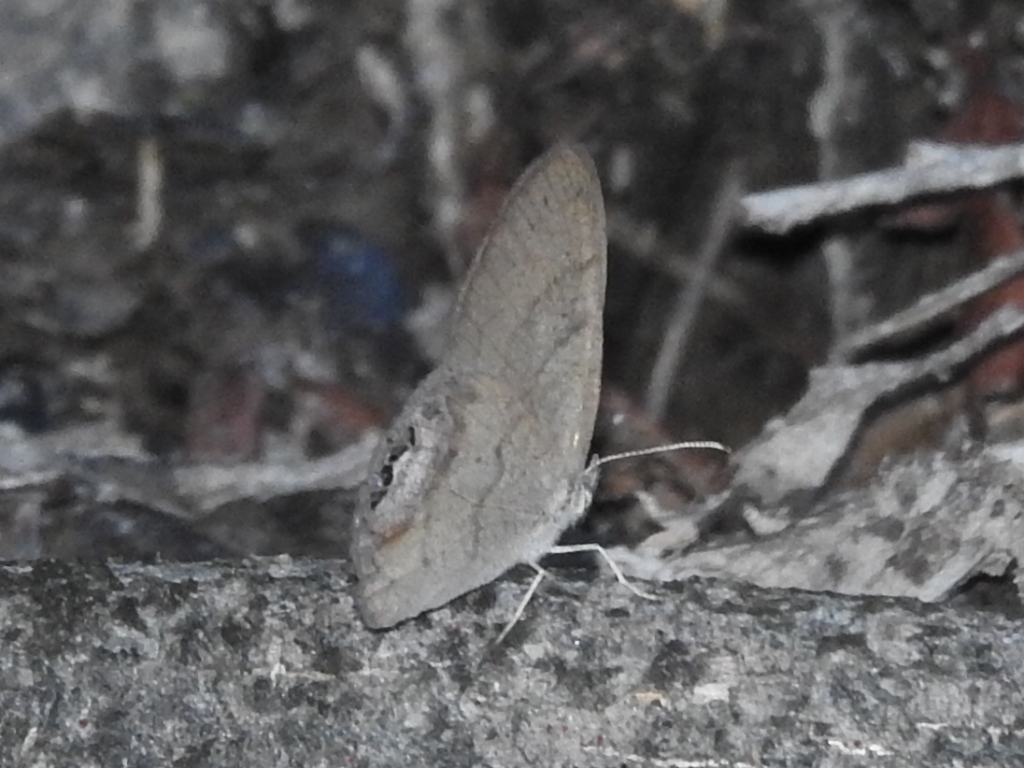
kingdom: Animalia
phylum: Arthropoda
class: Insecta
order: Lepidoptera
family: Nymphalidae
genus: Euptychia
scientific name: Euptychia cornelius
